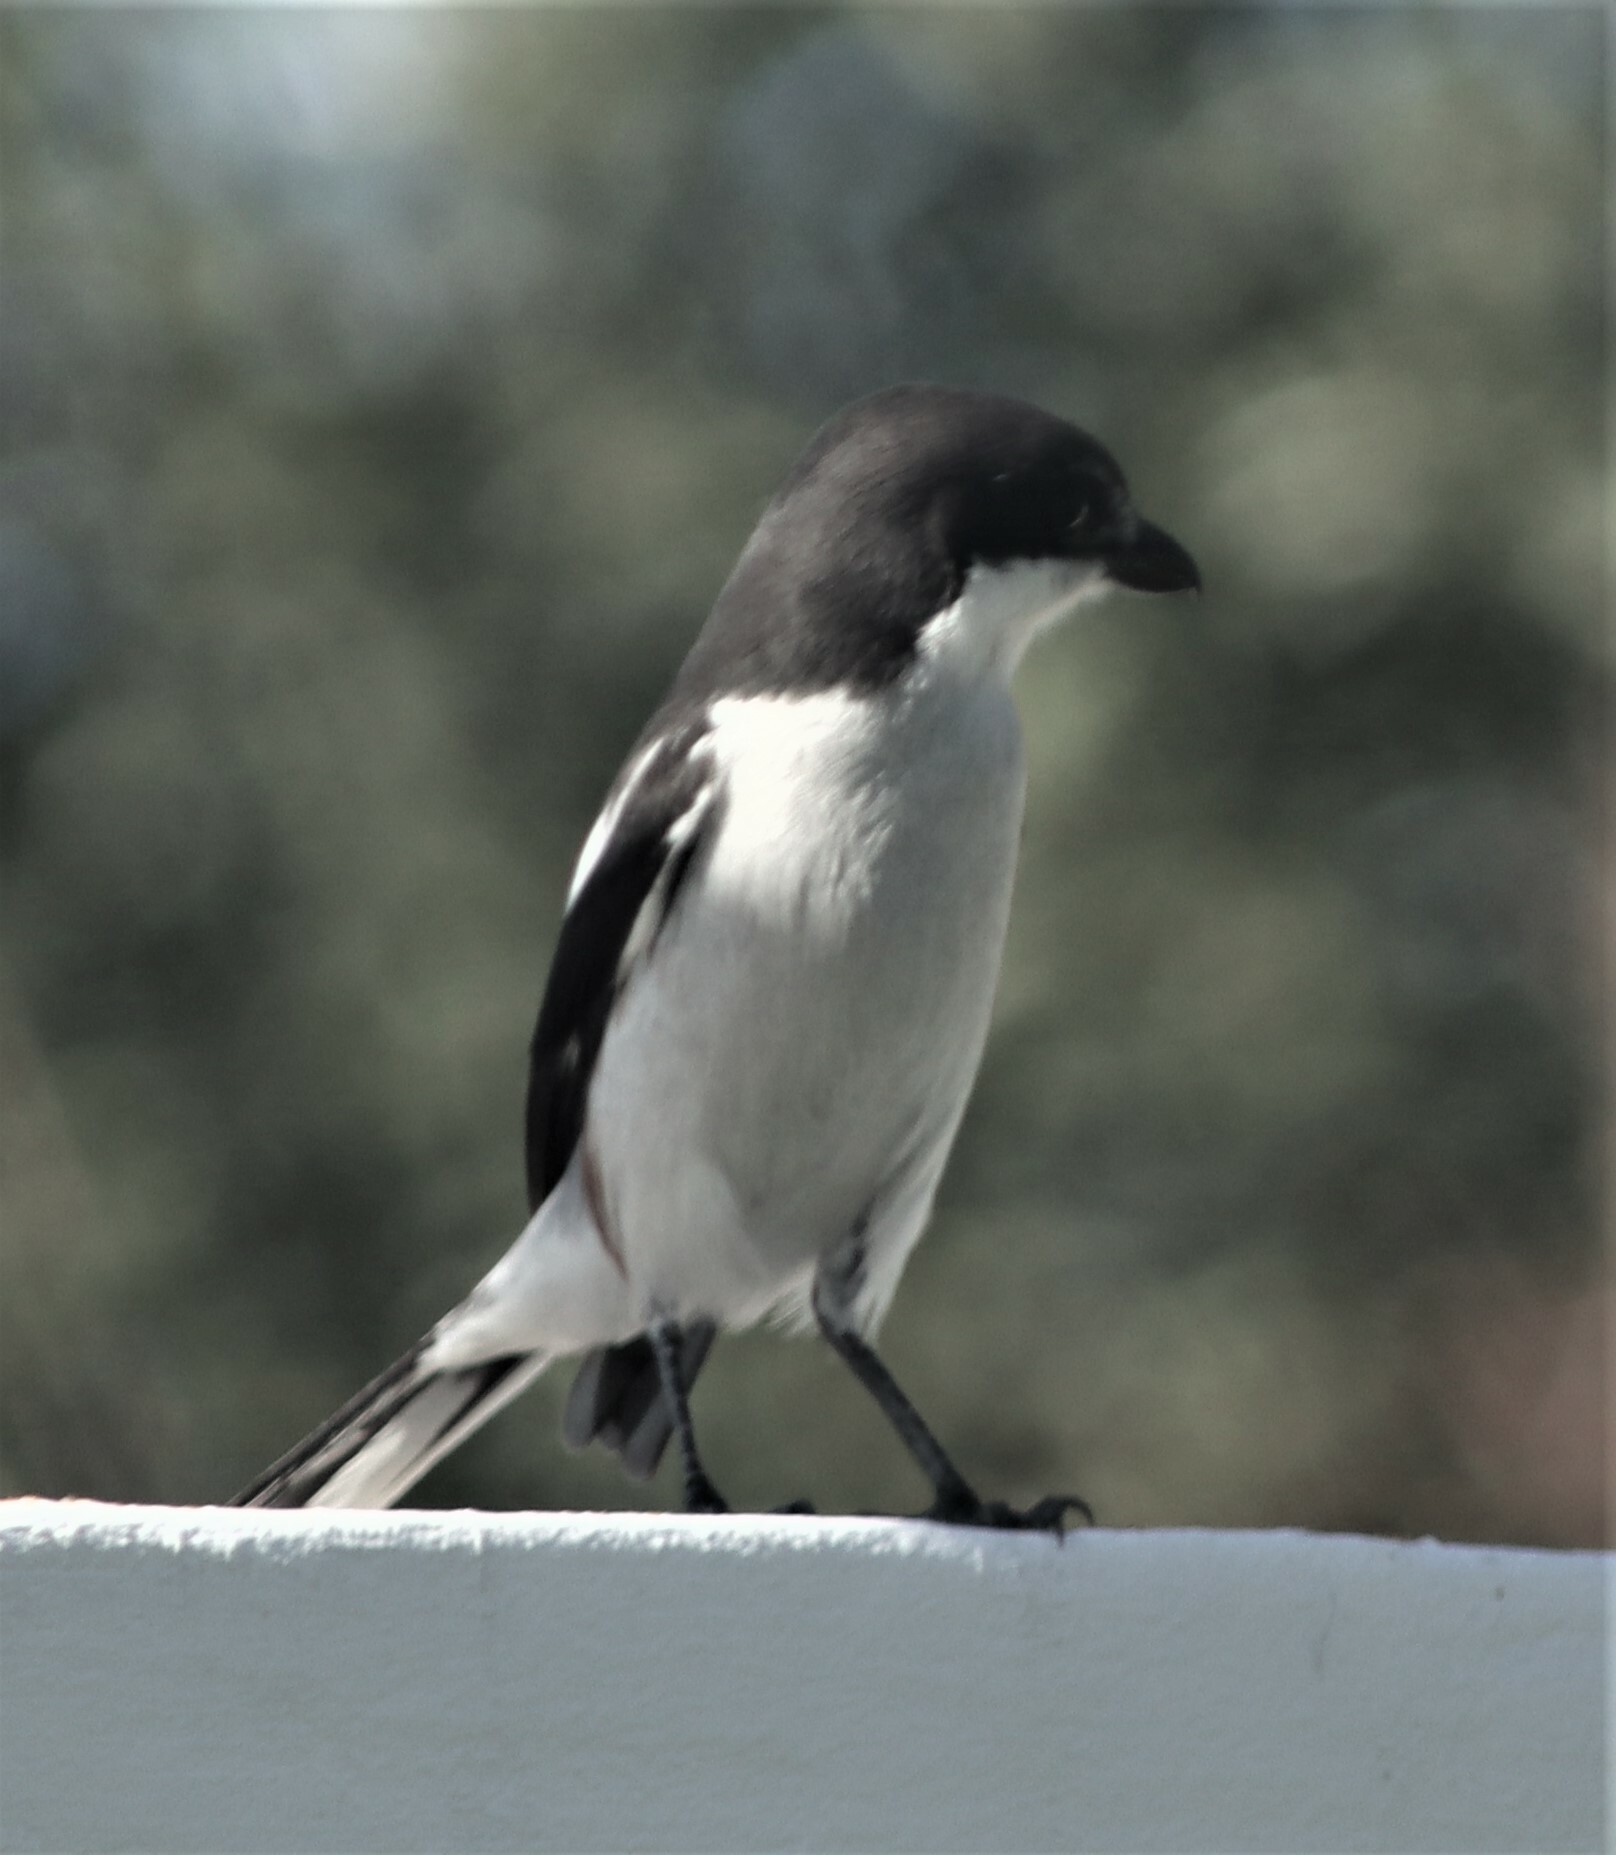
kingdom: Animalia
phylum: Chordata
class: Aves
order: Passeriformes
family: Laniidae
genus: Lanius
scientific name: Lanius collaris
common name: Southern fiscal
